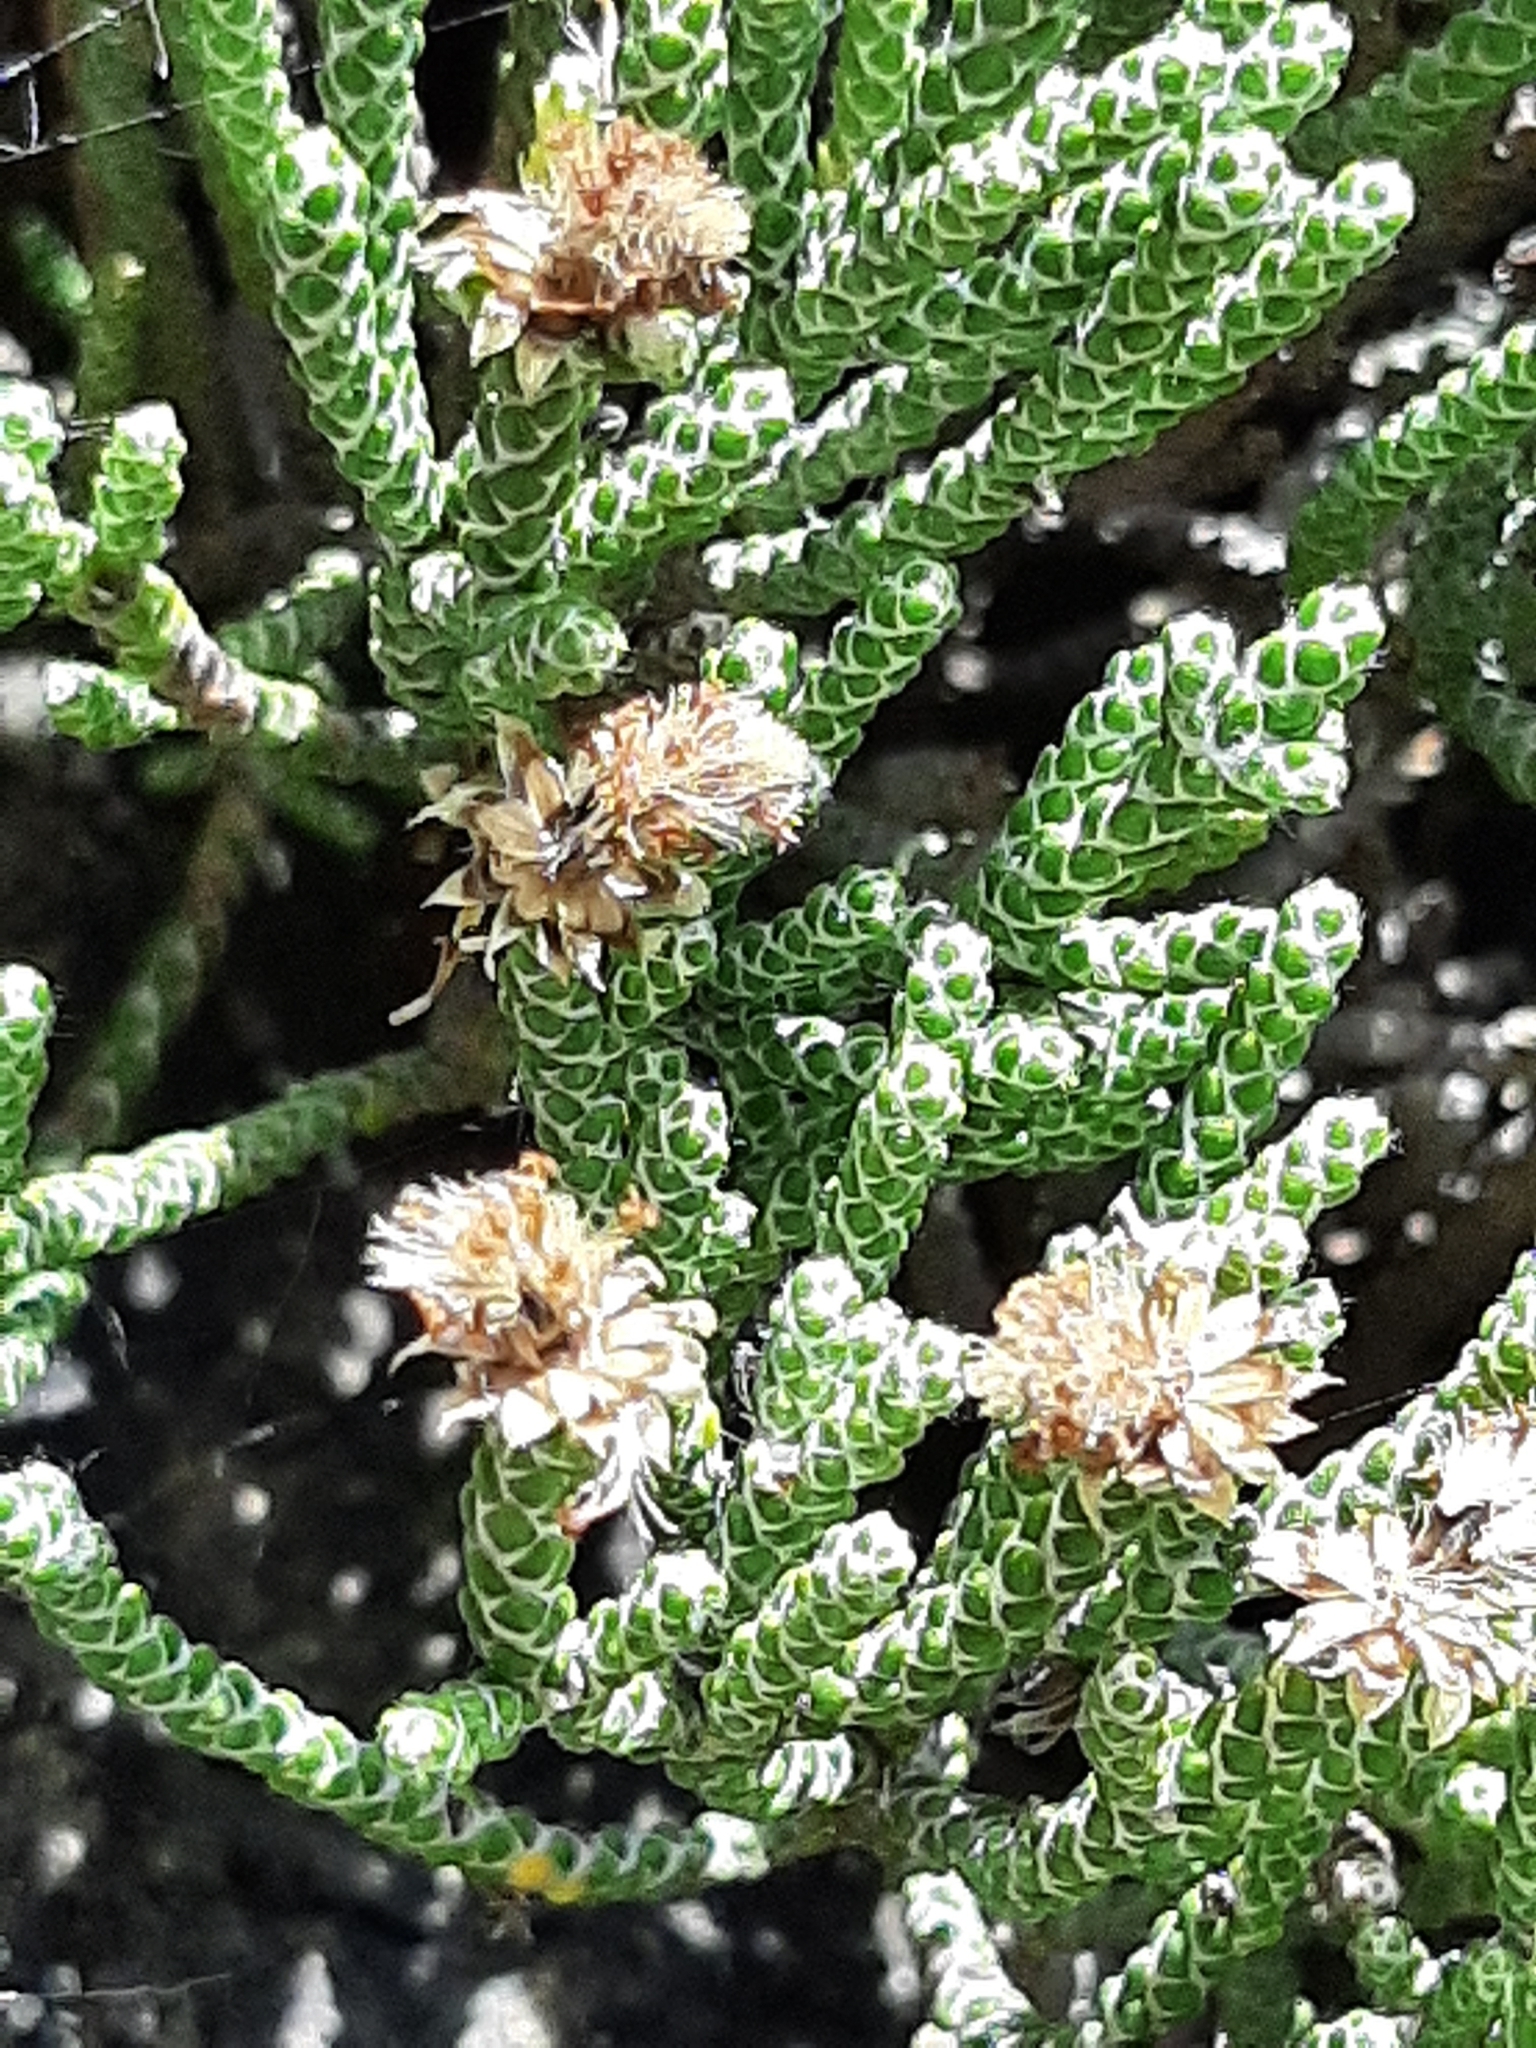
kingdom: Plantae
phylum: Tracheophyta
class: Magnoliopsida
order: Asterales
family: Asteraceae
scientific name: Asteraceae
